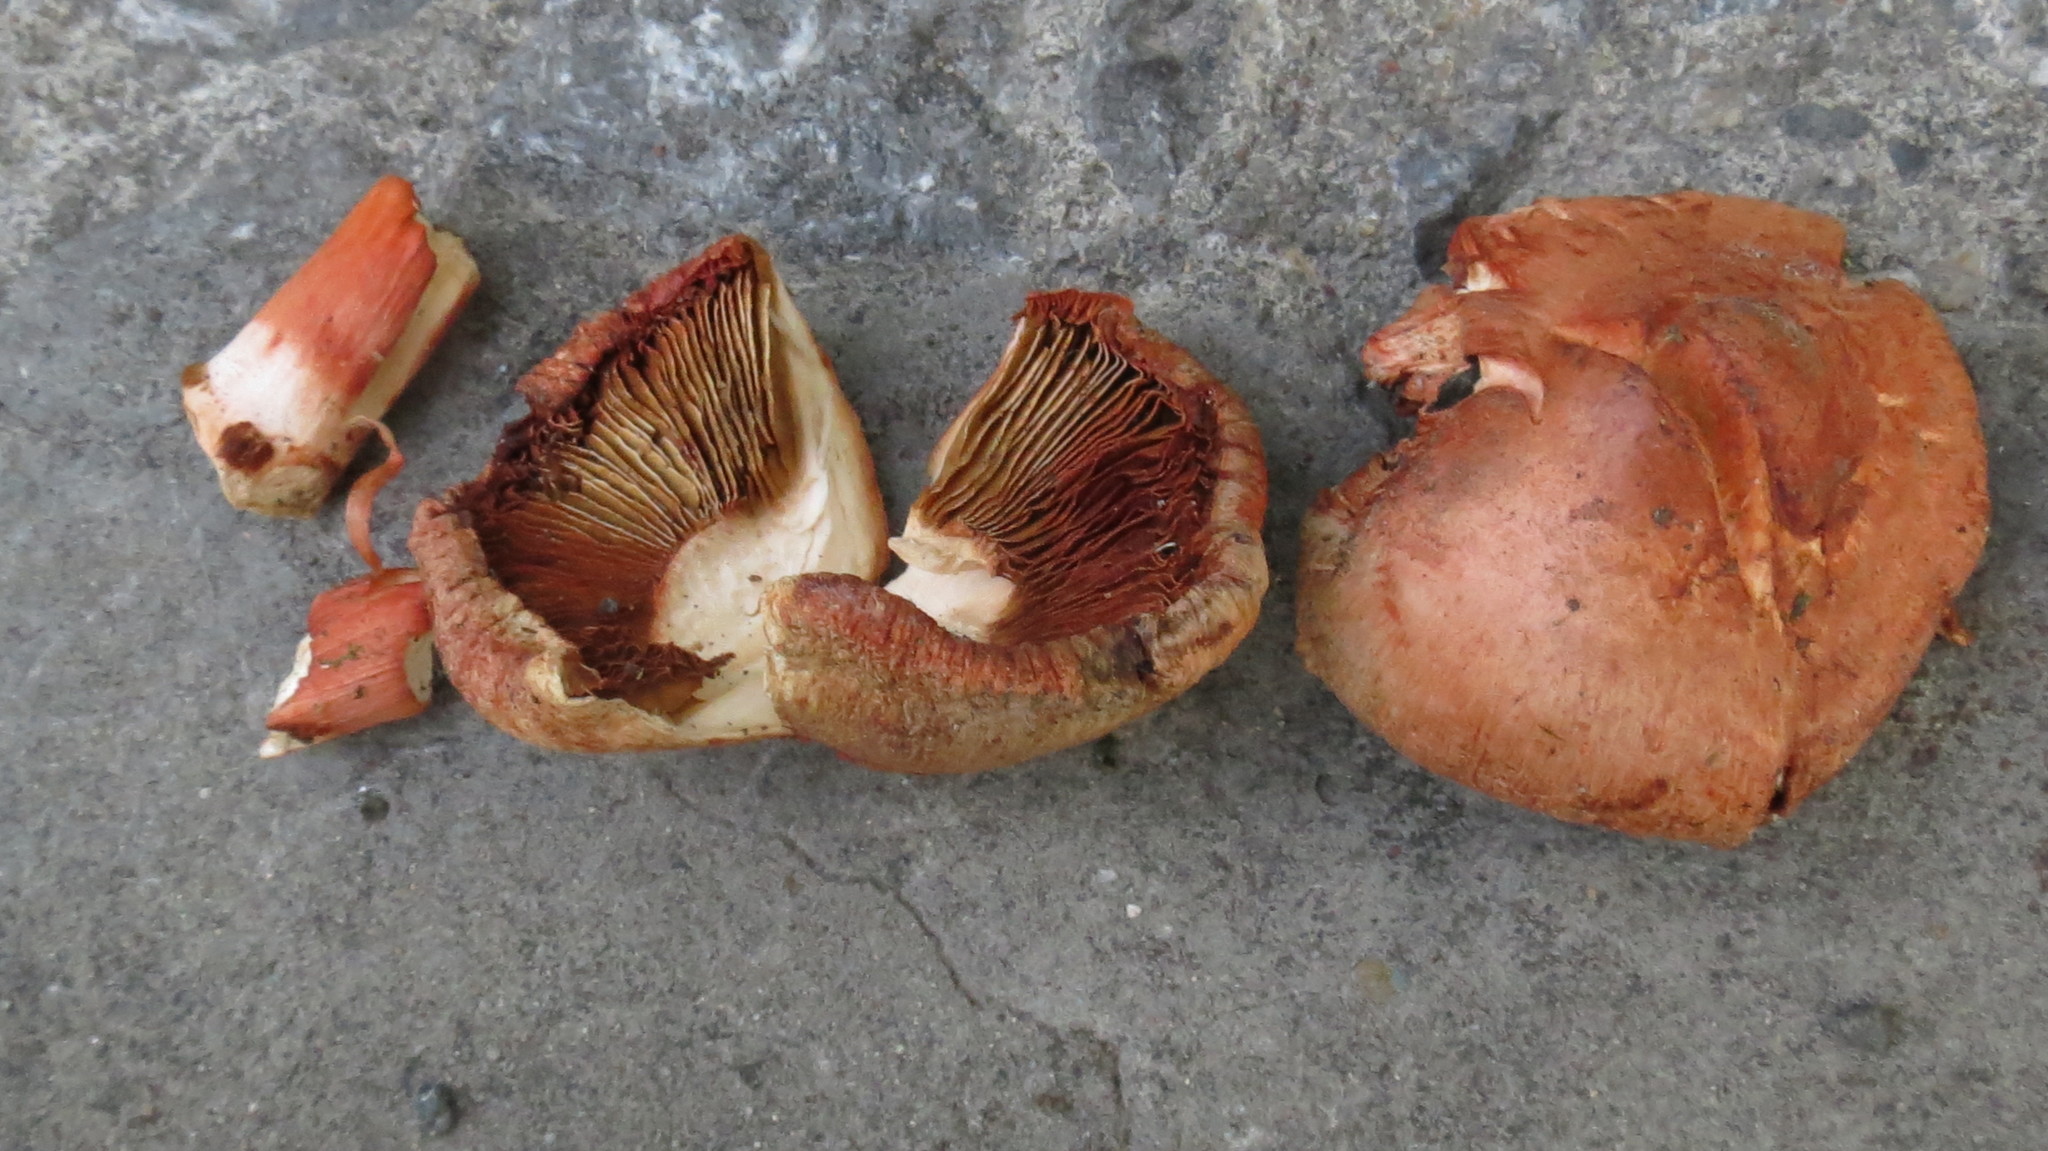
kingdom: Fungi
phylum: Basidiomycota
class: Agaricomycetes
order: Agaricales
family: Inocybaceae
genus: Inosperma
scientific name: Inosperma erubescens
